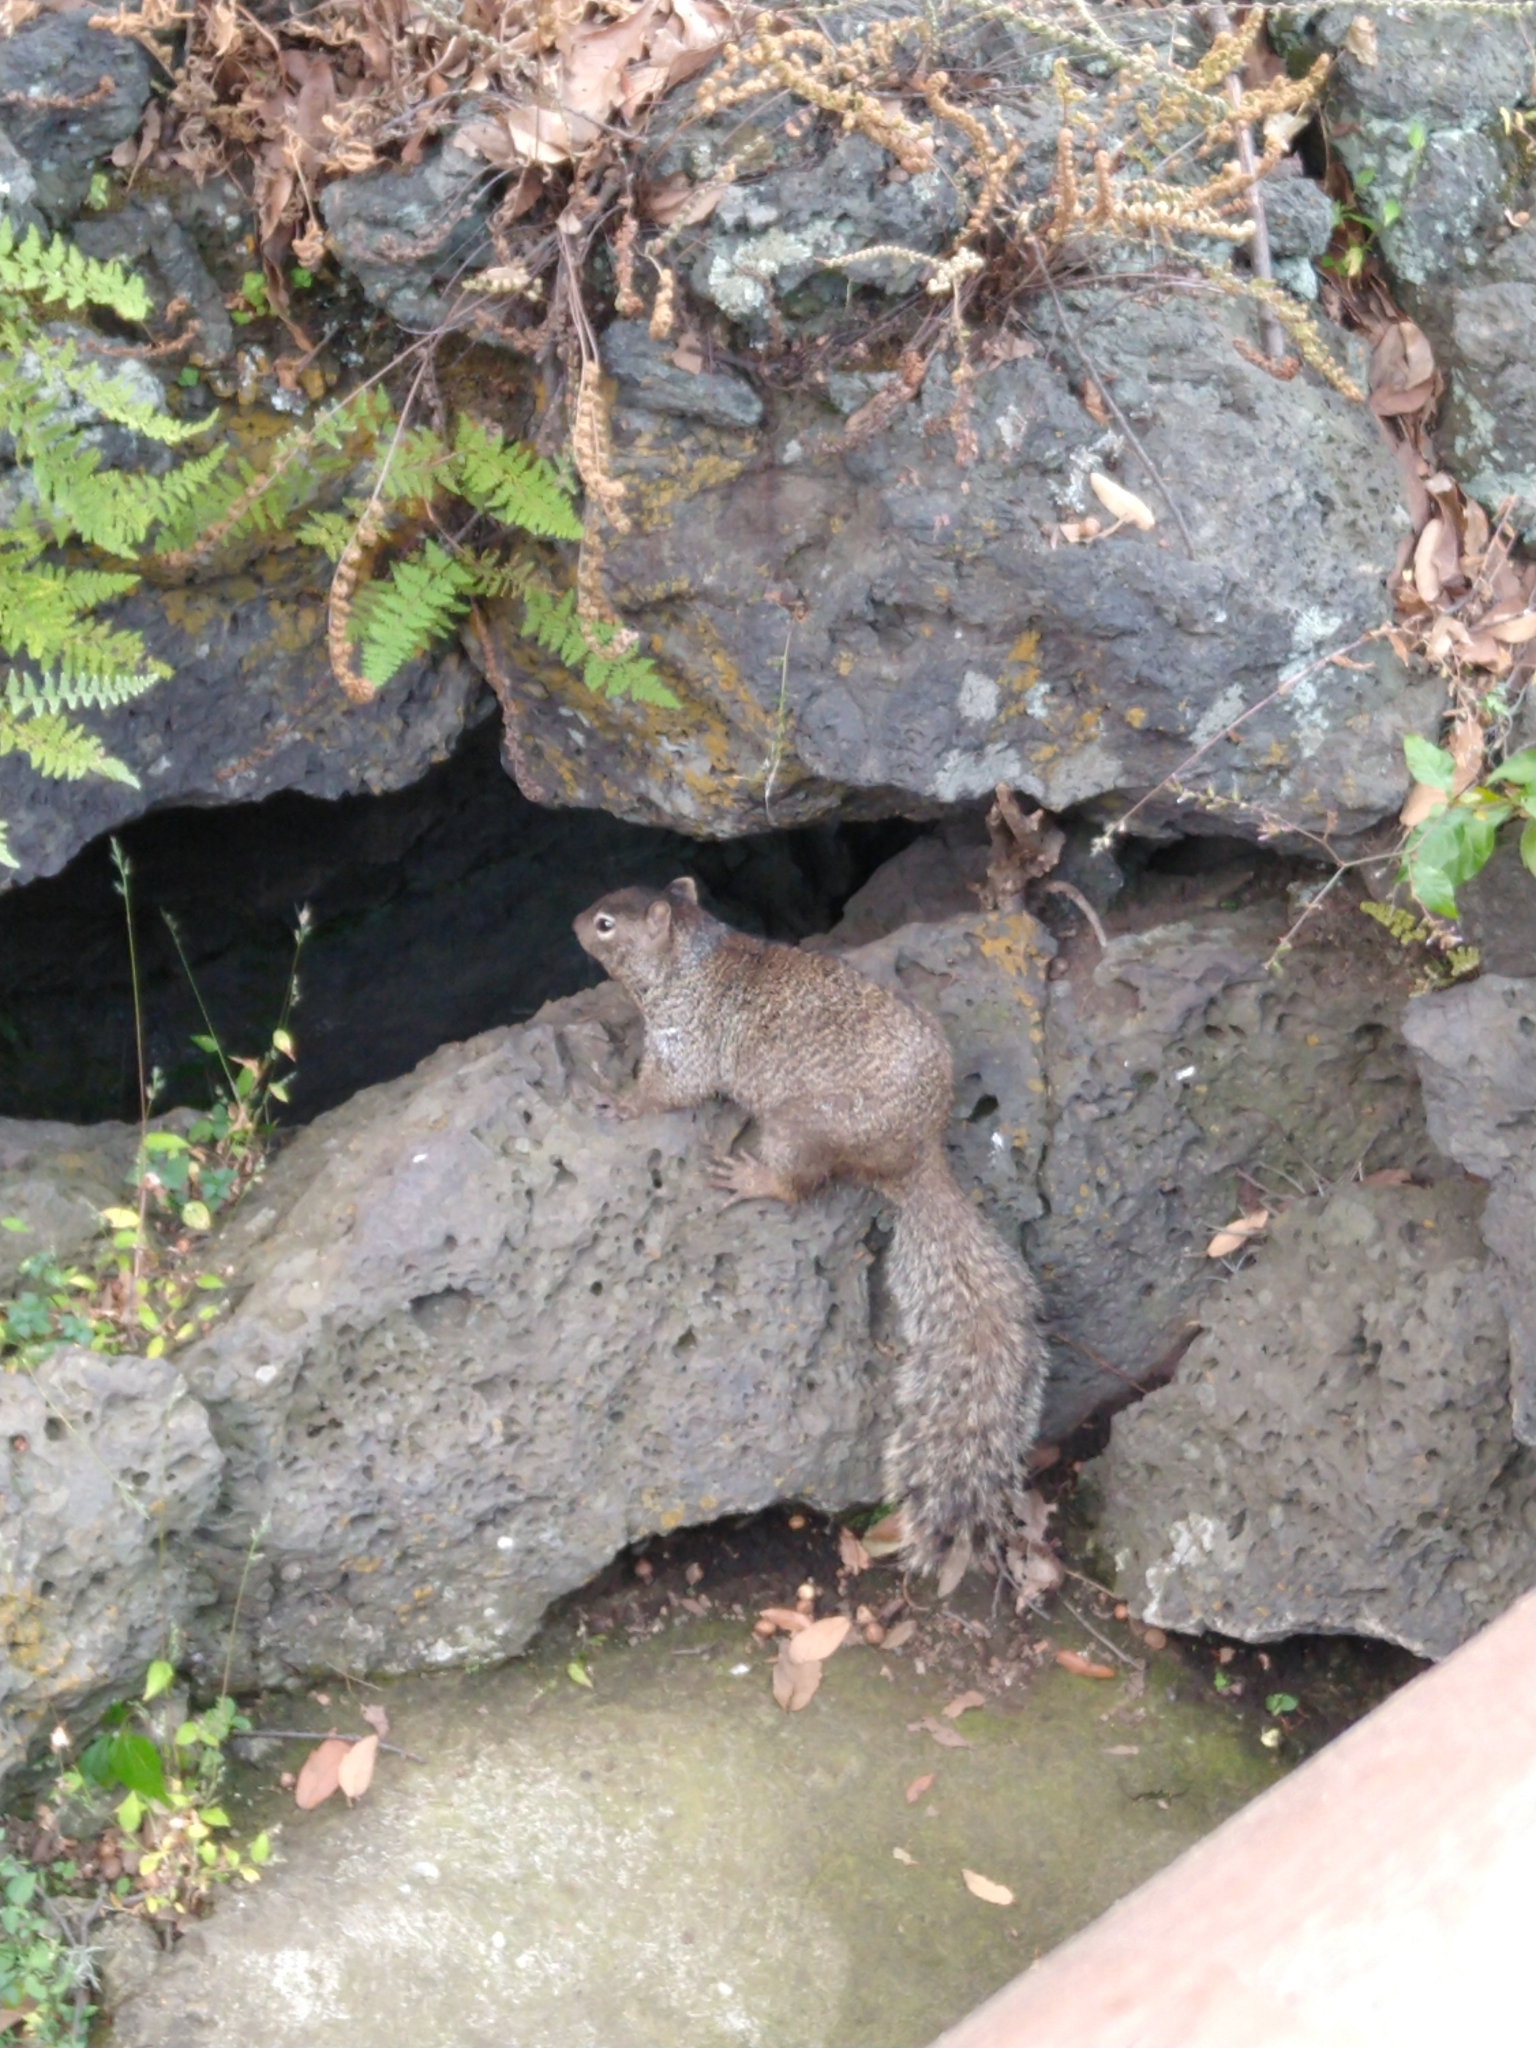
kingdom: Animalia
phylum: Chordata
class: Mammalia
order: Rodentia
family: Sciuridae
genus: Otospermophilus
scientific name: Otospermophilus variegatus
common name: Rock squirrel
